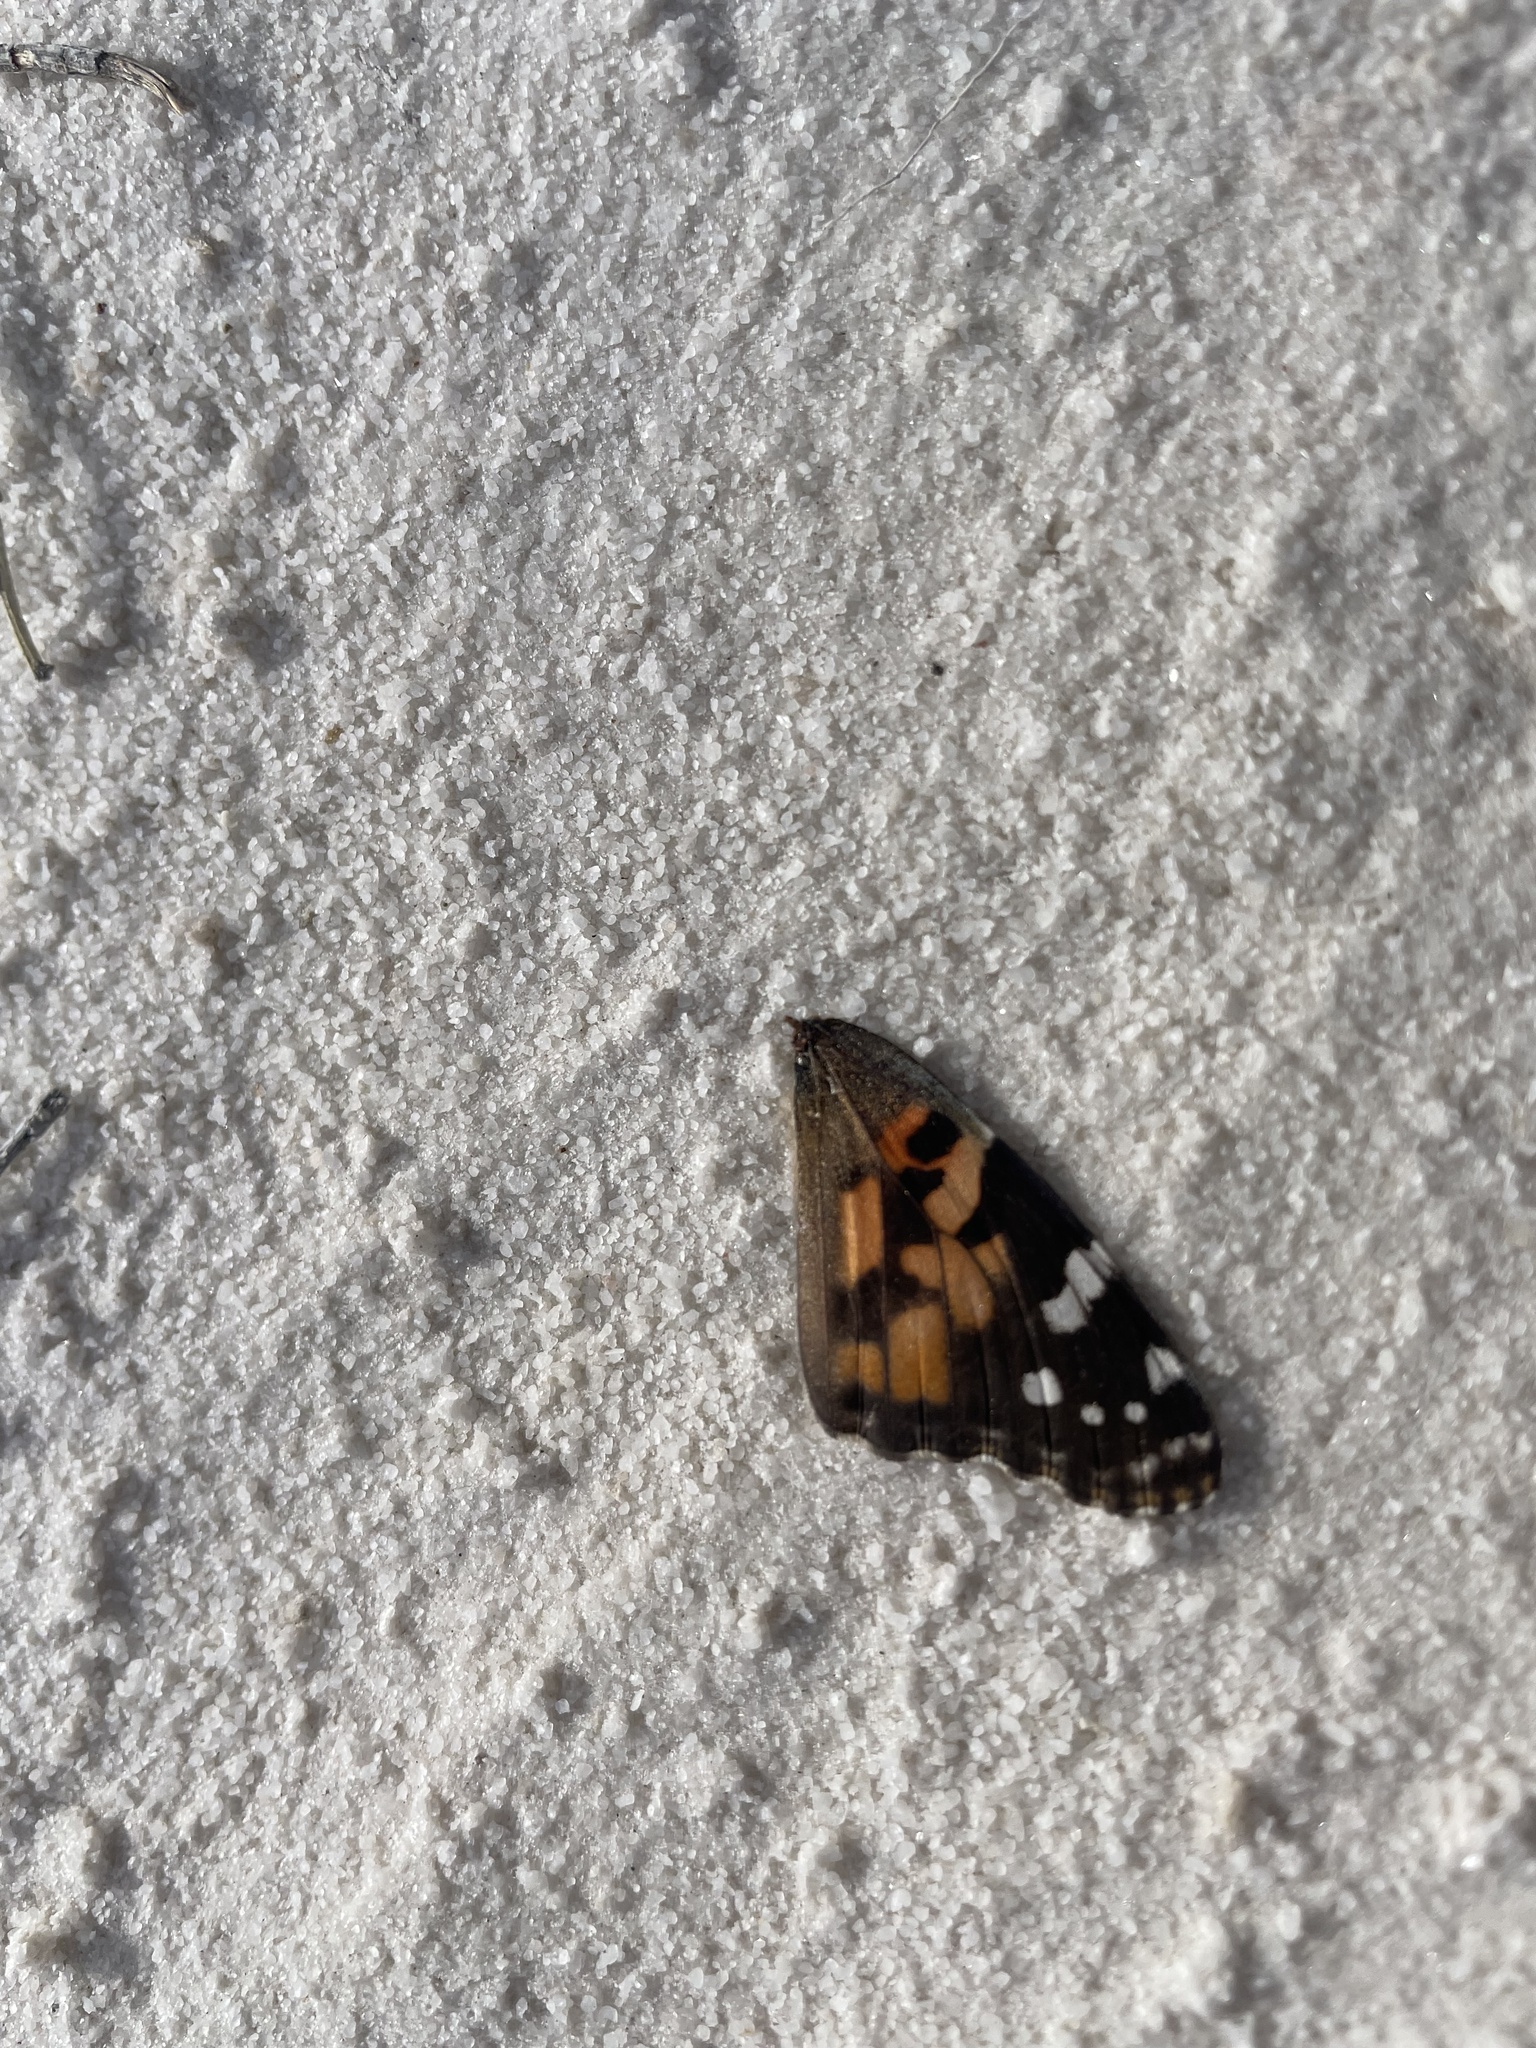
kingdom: Animalia
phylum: Arthropoda
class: Insecta
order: Lepidoptera
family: Nymphalidae
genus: Vanessa
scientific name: Vanessa cardui
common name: Painted lady
